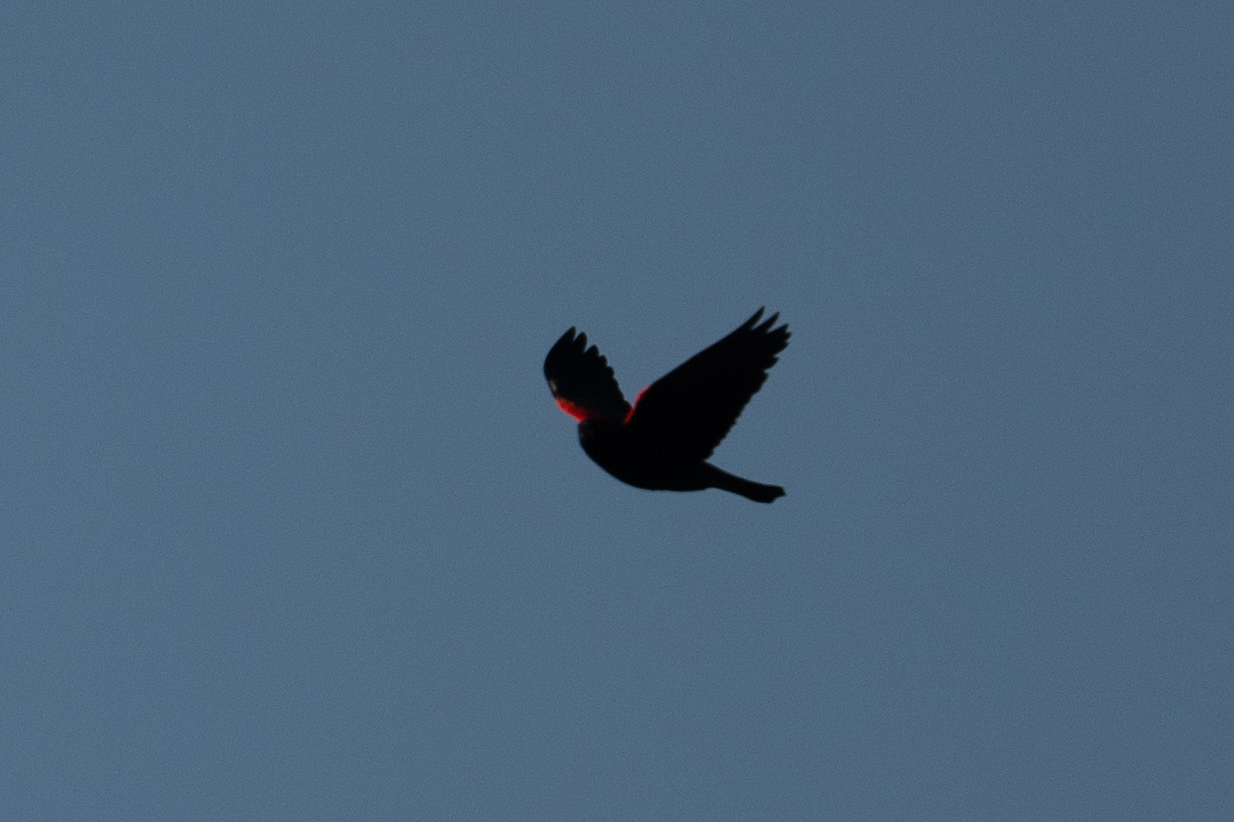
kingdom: Animalia
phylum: Chordata
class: Aves
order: Passeriformes
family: Icteridae
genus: Agelaius
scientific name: Agelaius phoeniceus
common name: Red-winged blackbird
